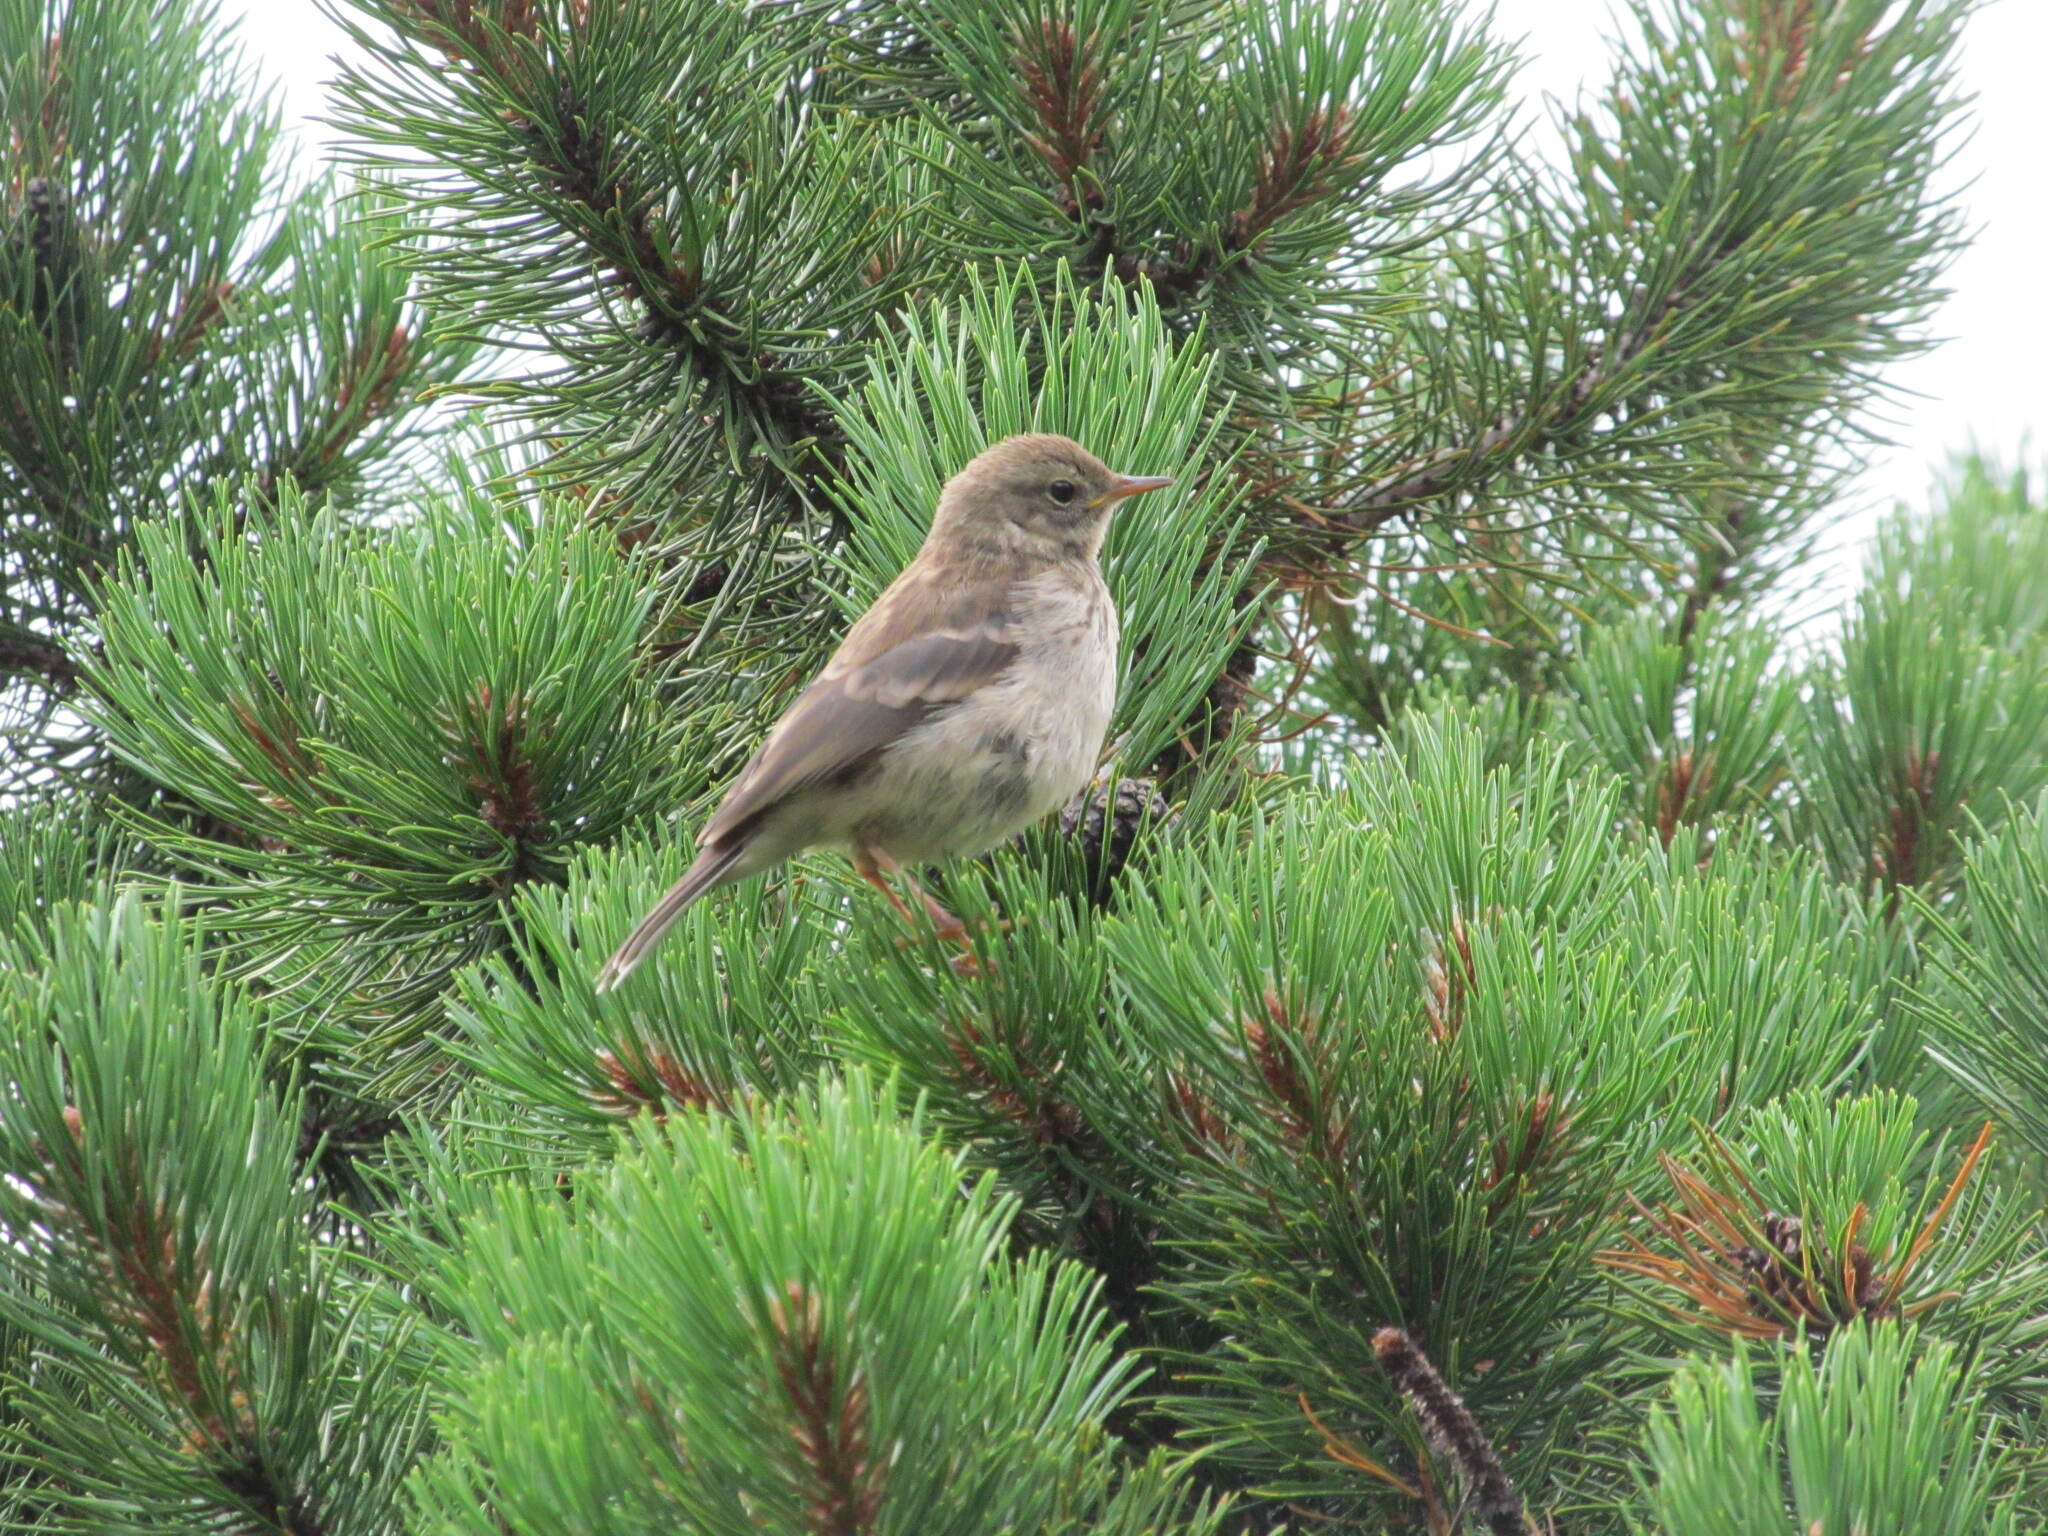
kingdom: Animalia
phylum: Chordata
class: Aves
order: Passeriformes
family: Motacillidae
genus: Anthus
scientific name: Anthus spinoletta
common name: Water pipit
